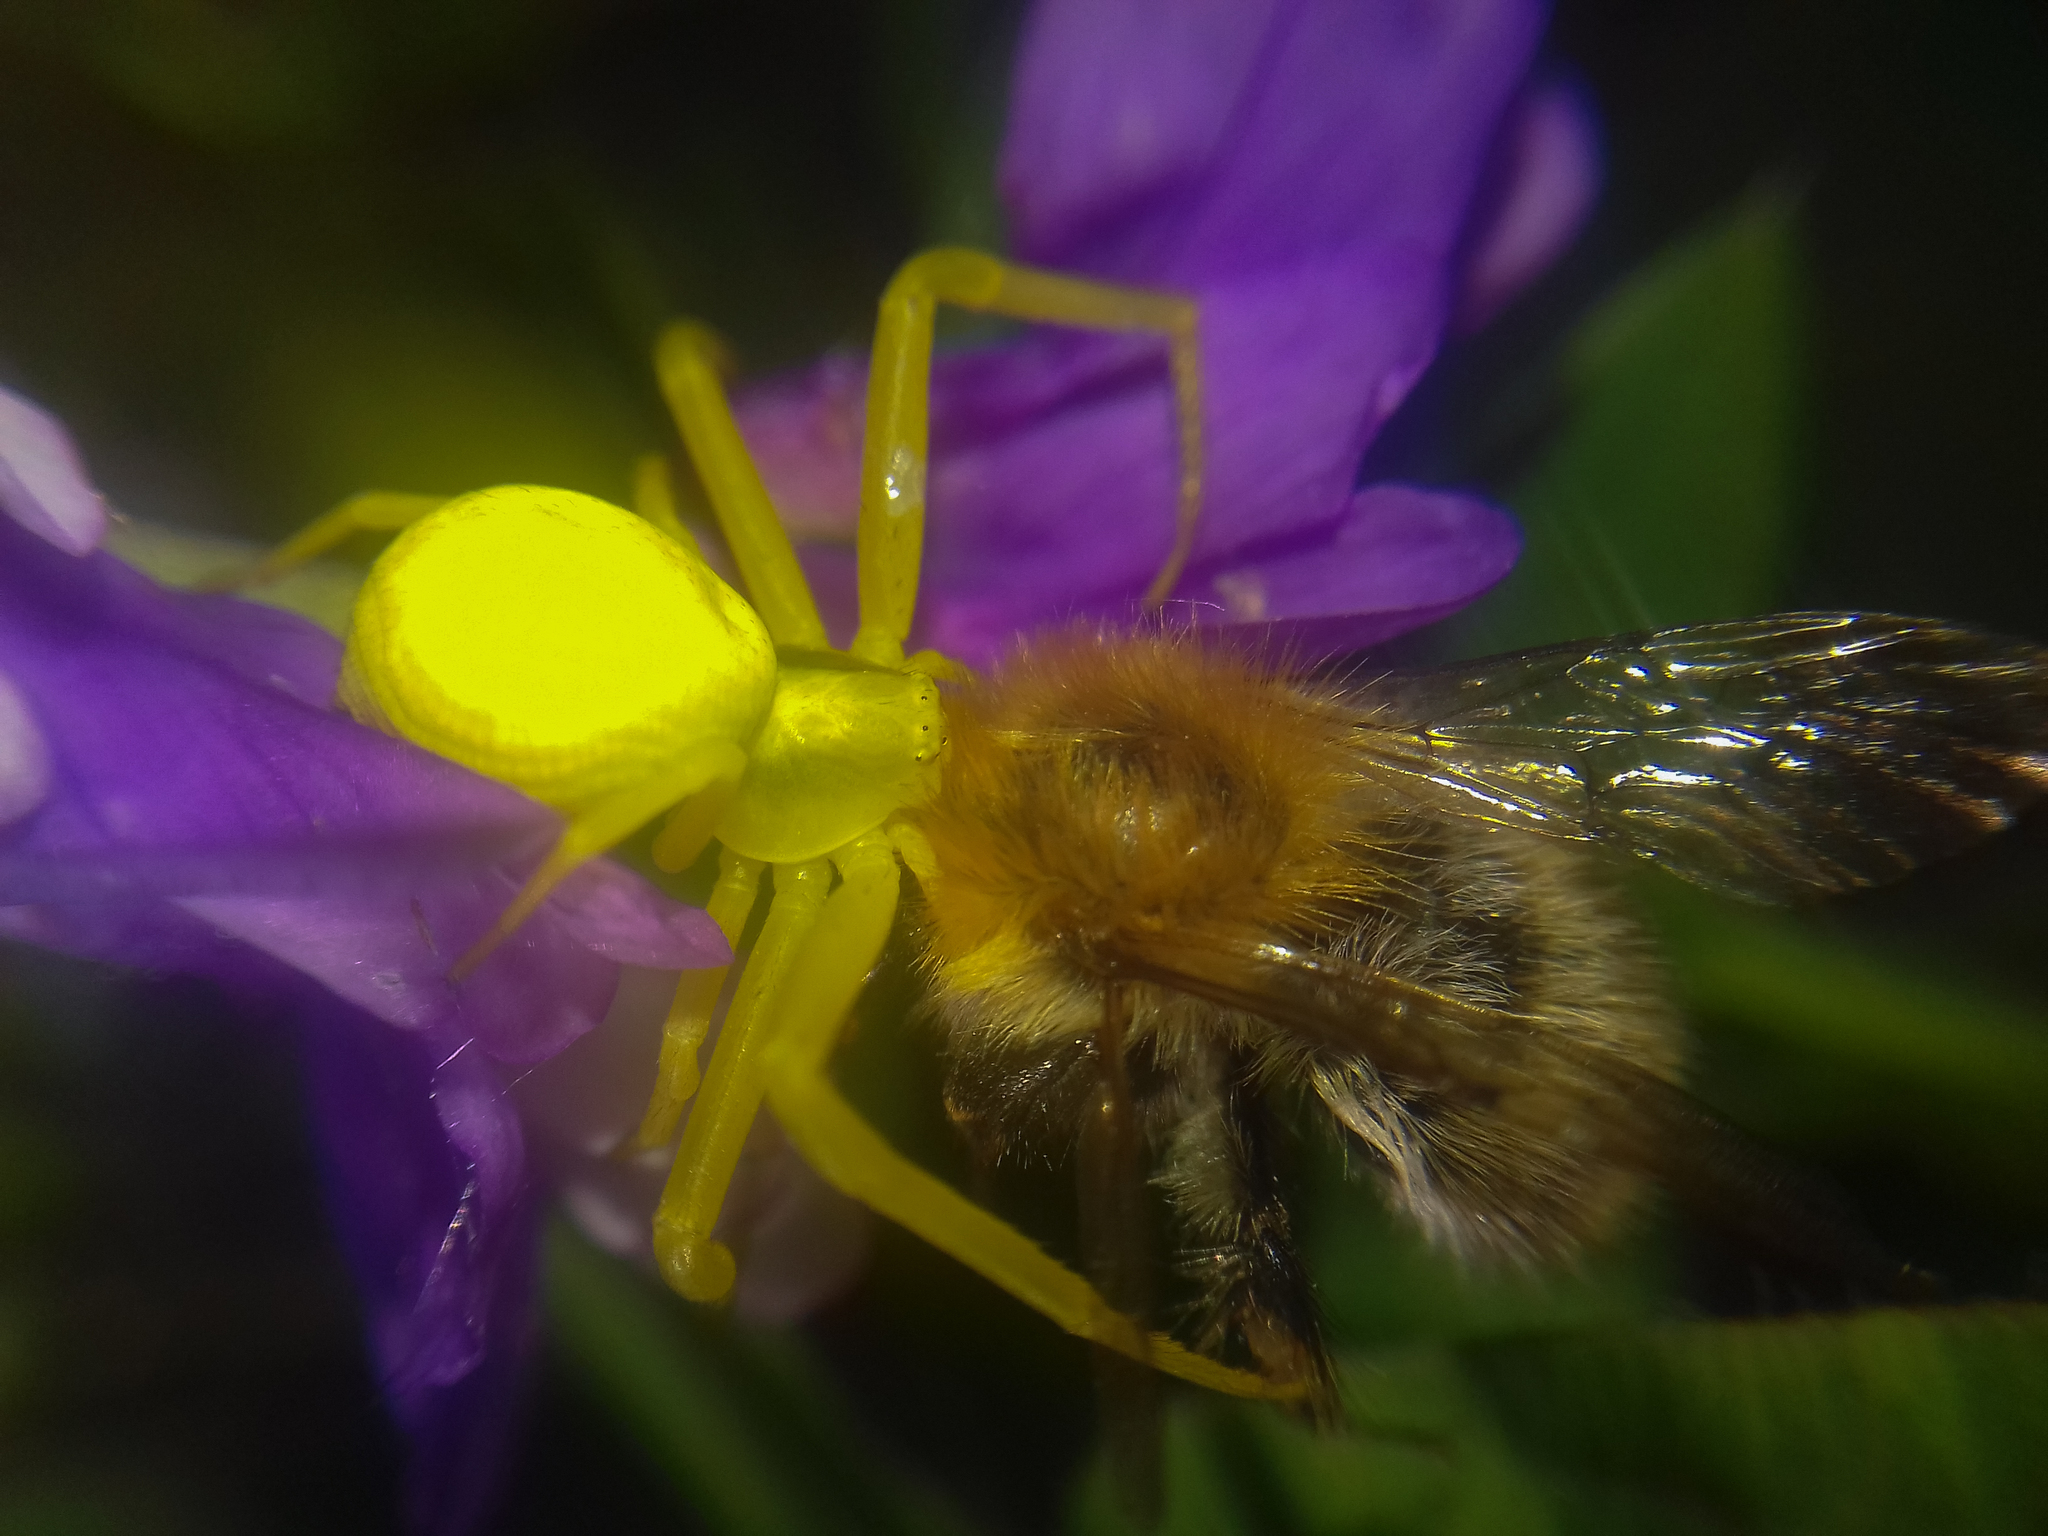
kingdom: Animalia
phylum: Arthropoda
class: Arachnida
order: Araneae
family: Thomisidae
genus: Misumena
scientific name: Misumena vatia
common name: Goldenrod crab spider
